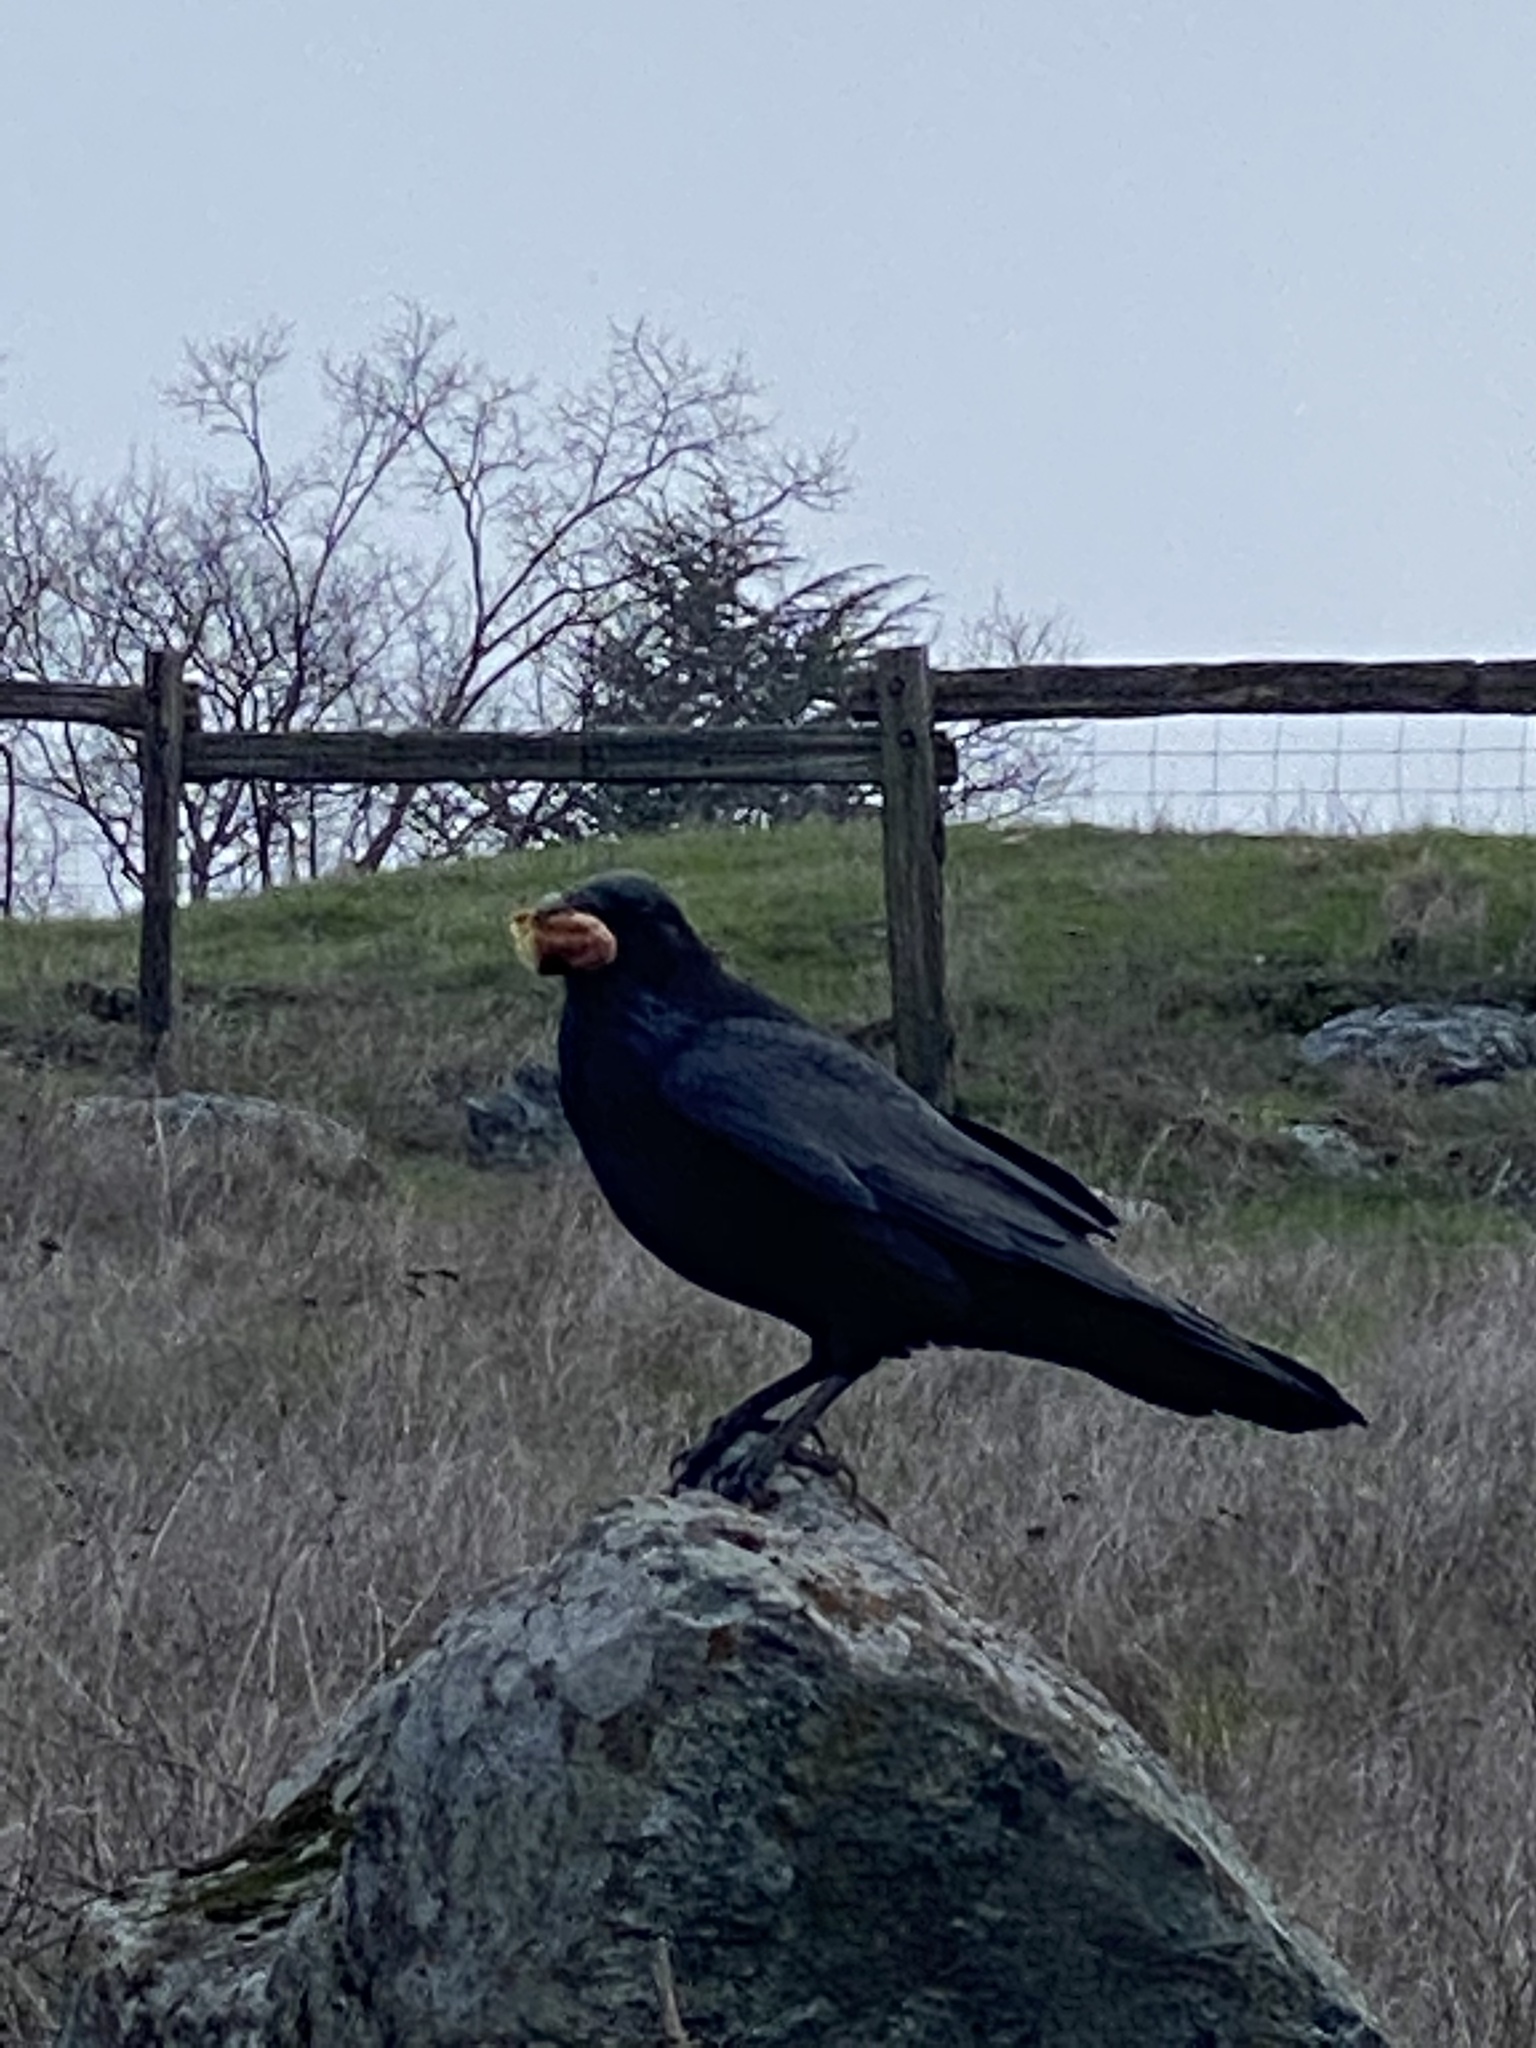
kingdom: Animalia
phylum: Chordata
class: Aves
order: Passeriformes
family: Corvidae
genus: Corvus
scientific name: Corvus corax
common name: Common raven
